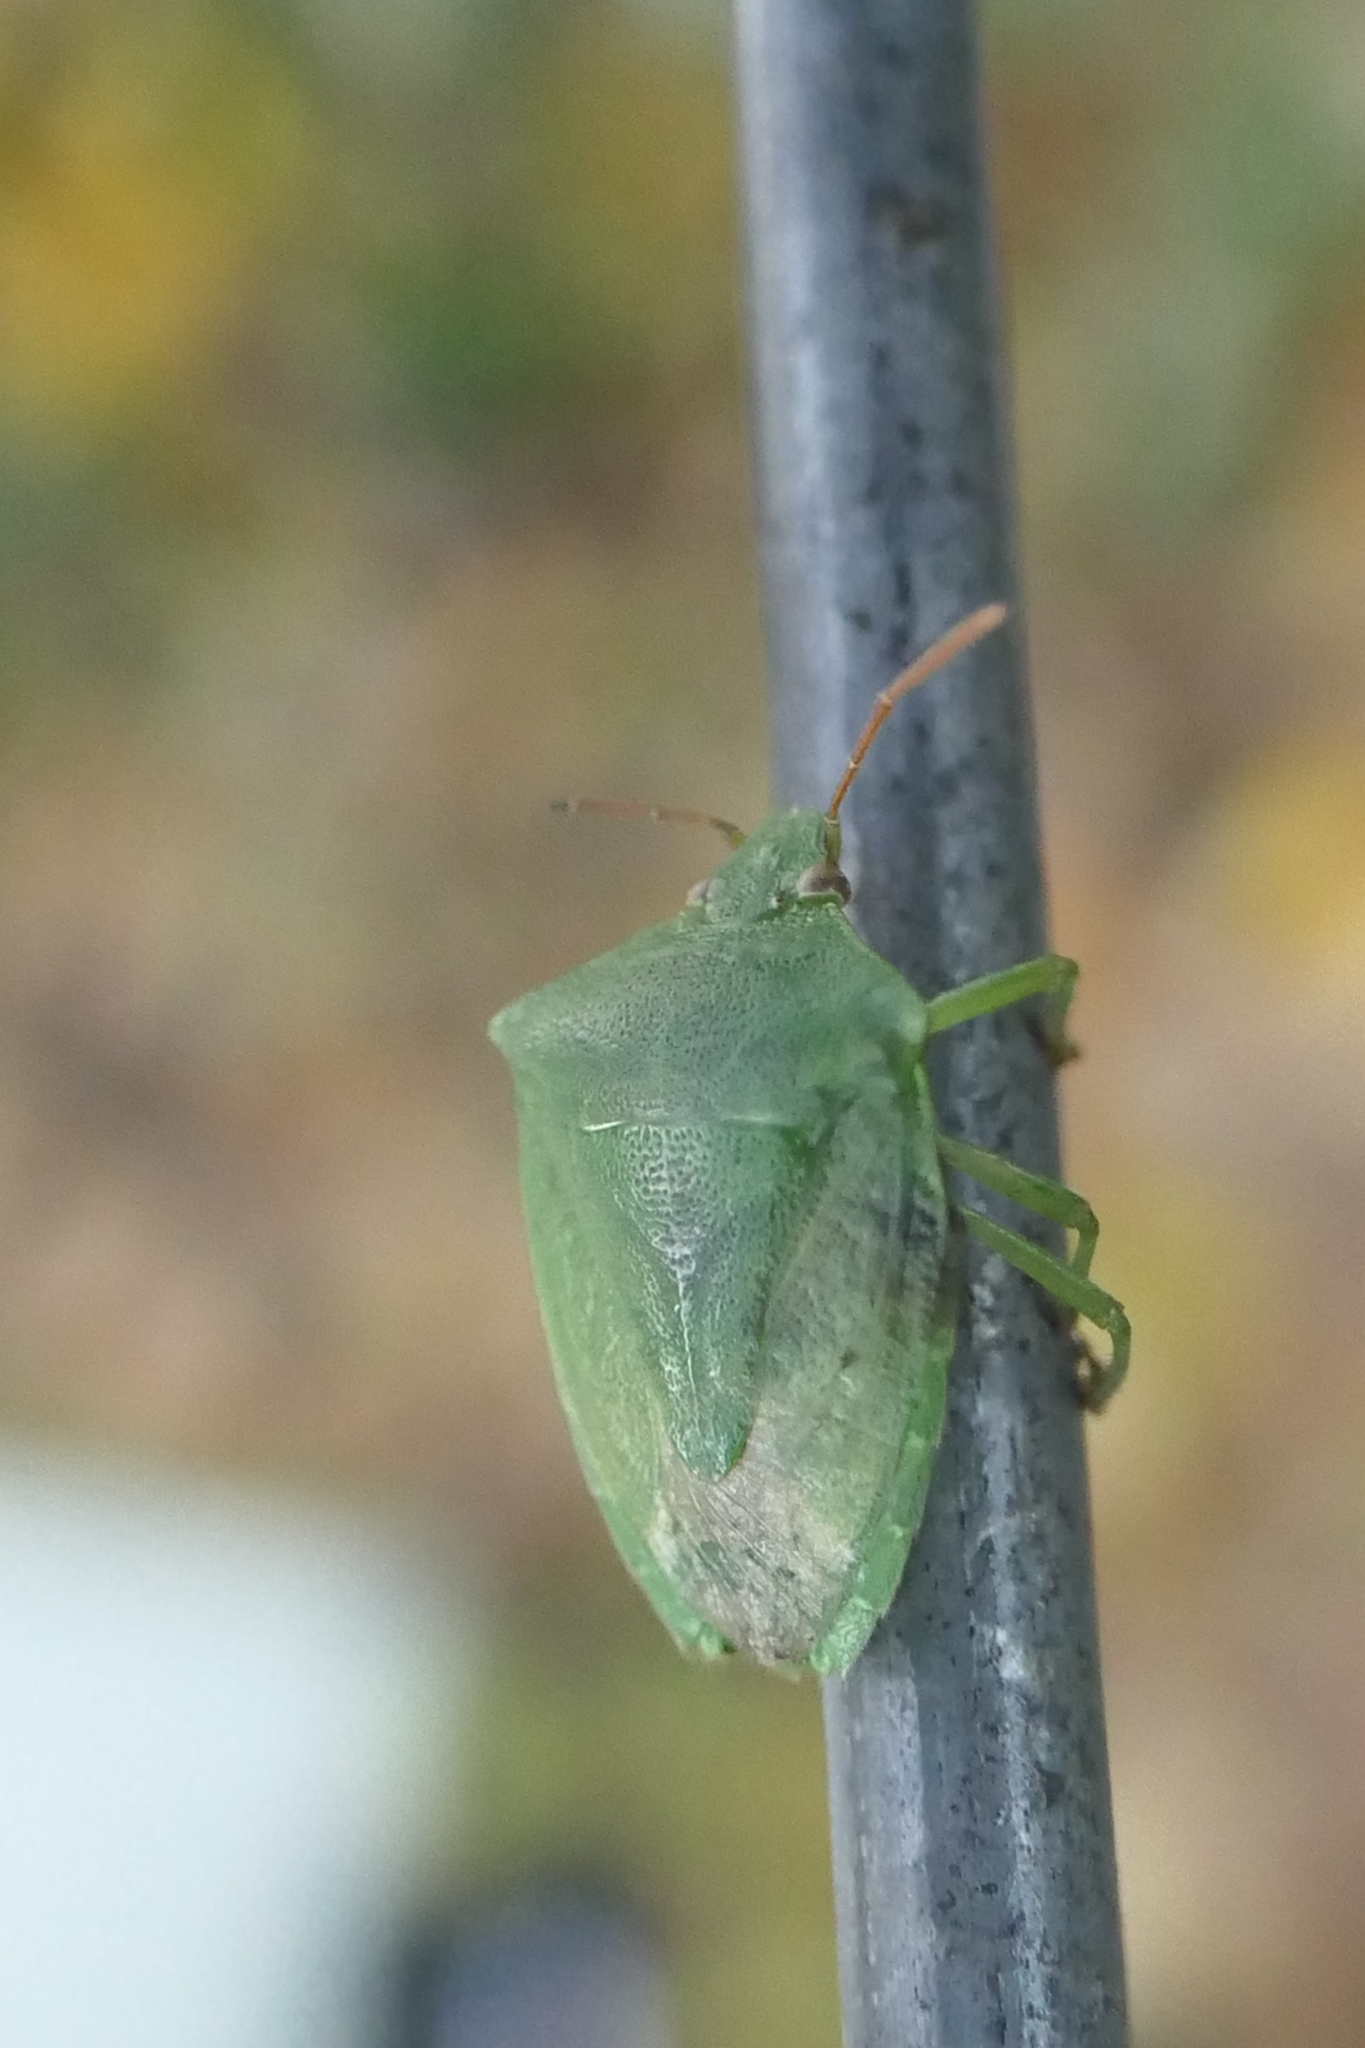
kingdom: Animalia
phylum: Arthropoda
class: Insecta
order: Hemiptera
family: Pentatomidae
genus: Cuspicona
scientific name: Cuspicona simplex
